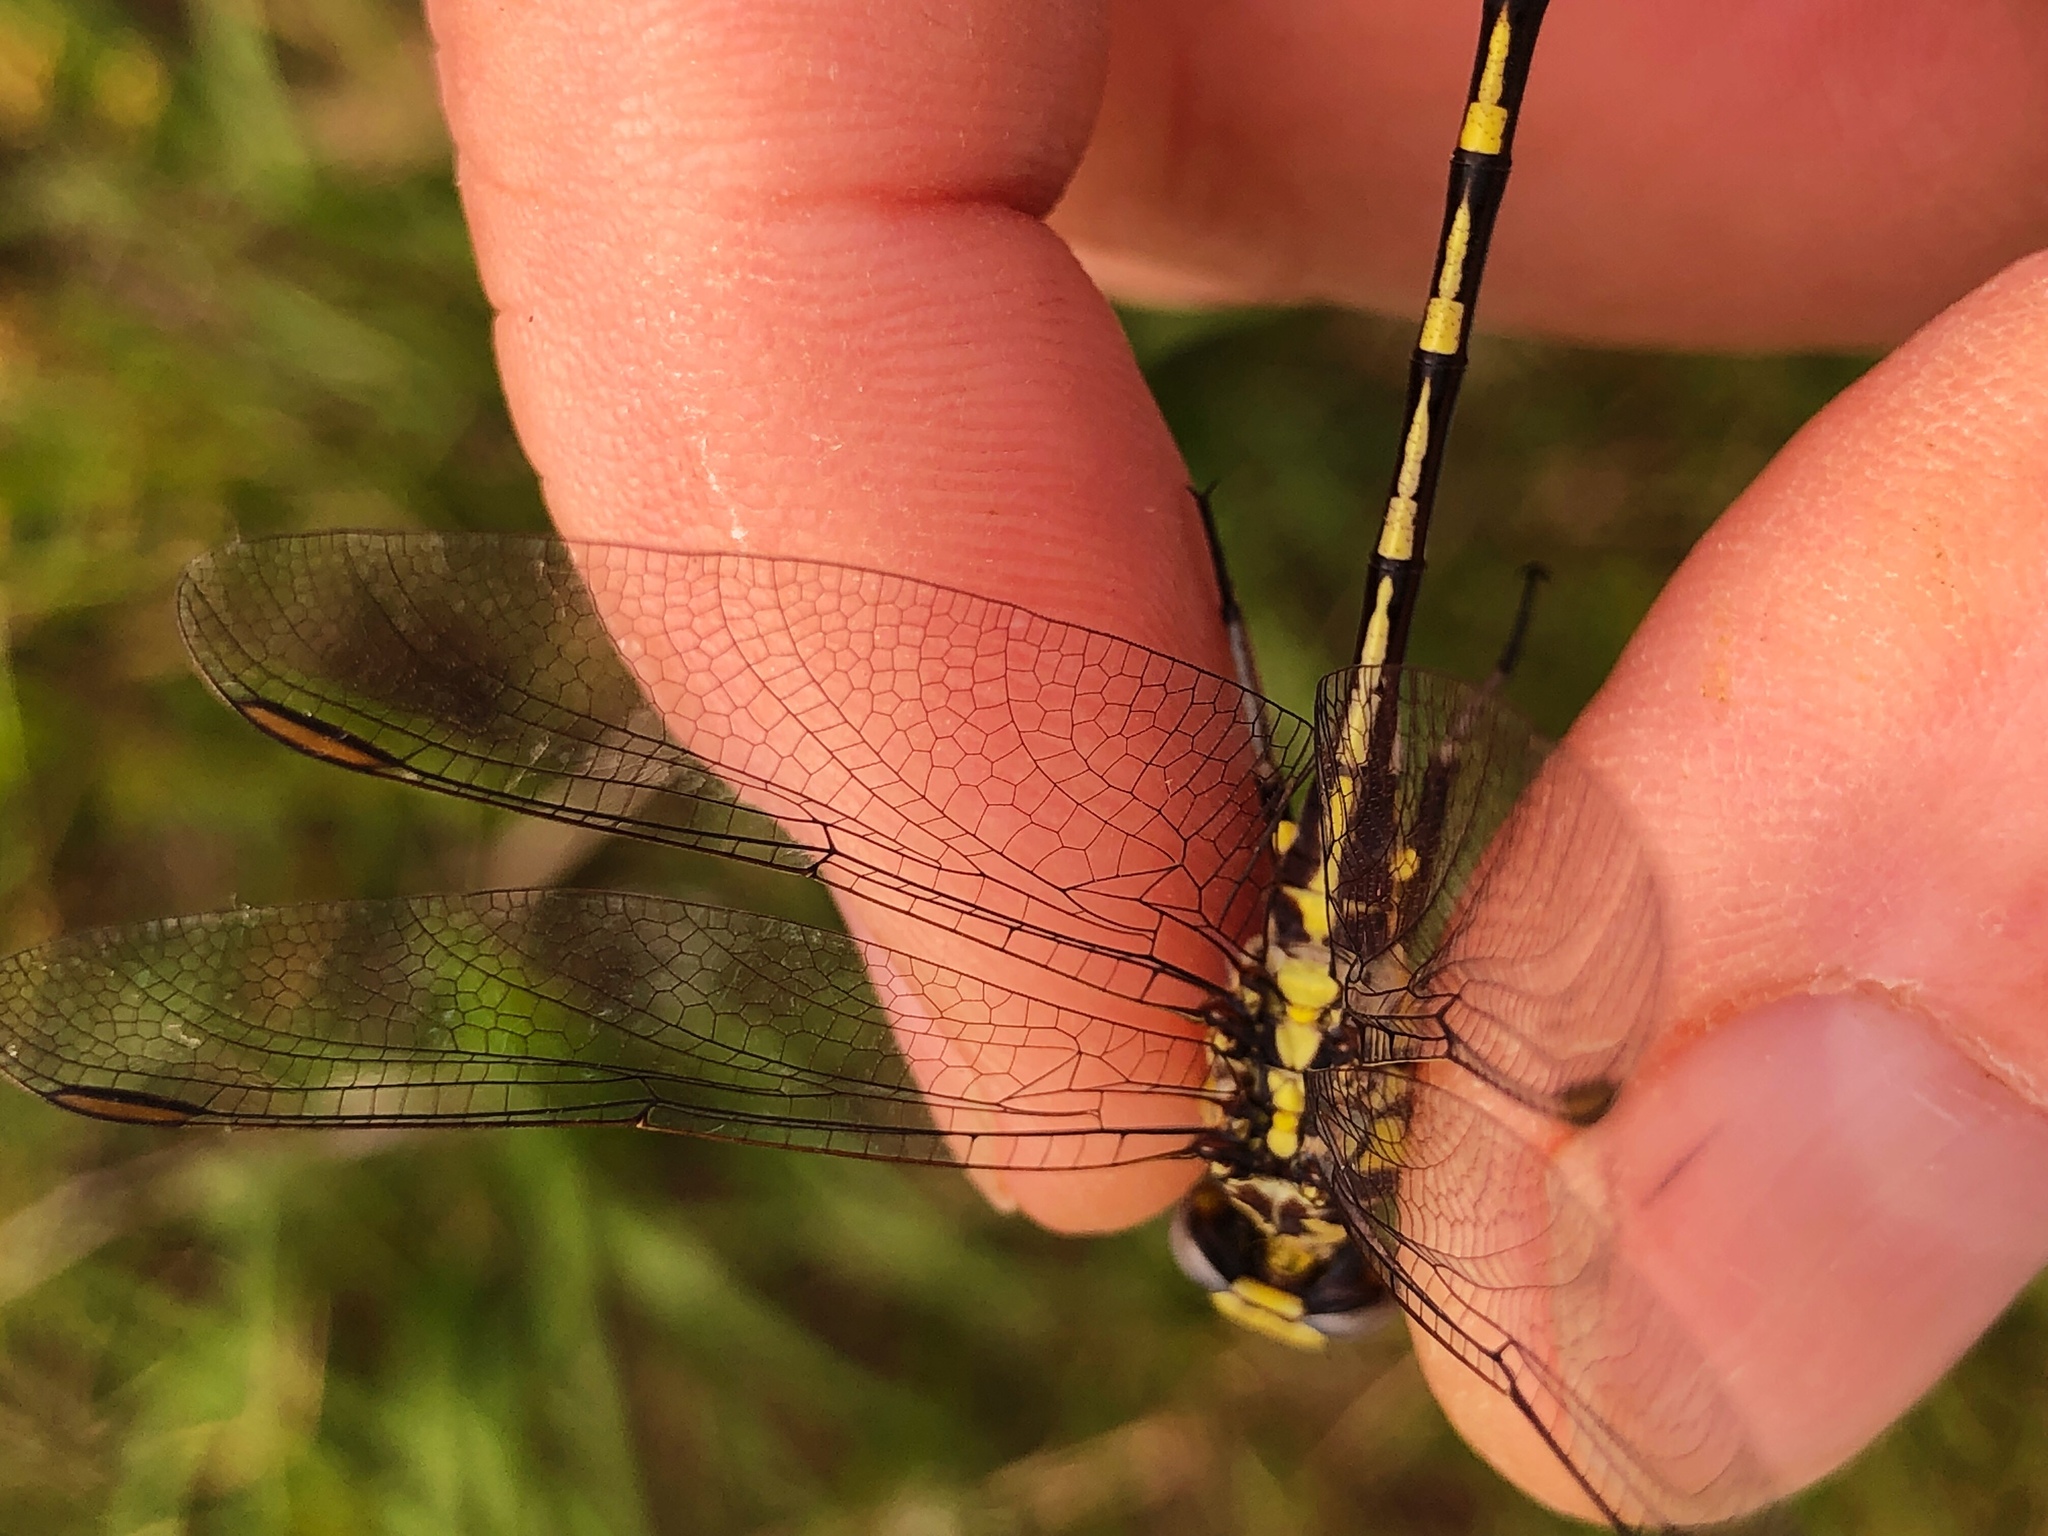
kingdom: Animalia
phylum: Arthropoda
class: Insecta
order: Odonata
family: Gomphidae
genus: Phanogomphus
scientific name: Phanogomphus militaris
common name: Sulphur-tipped clubtail
